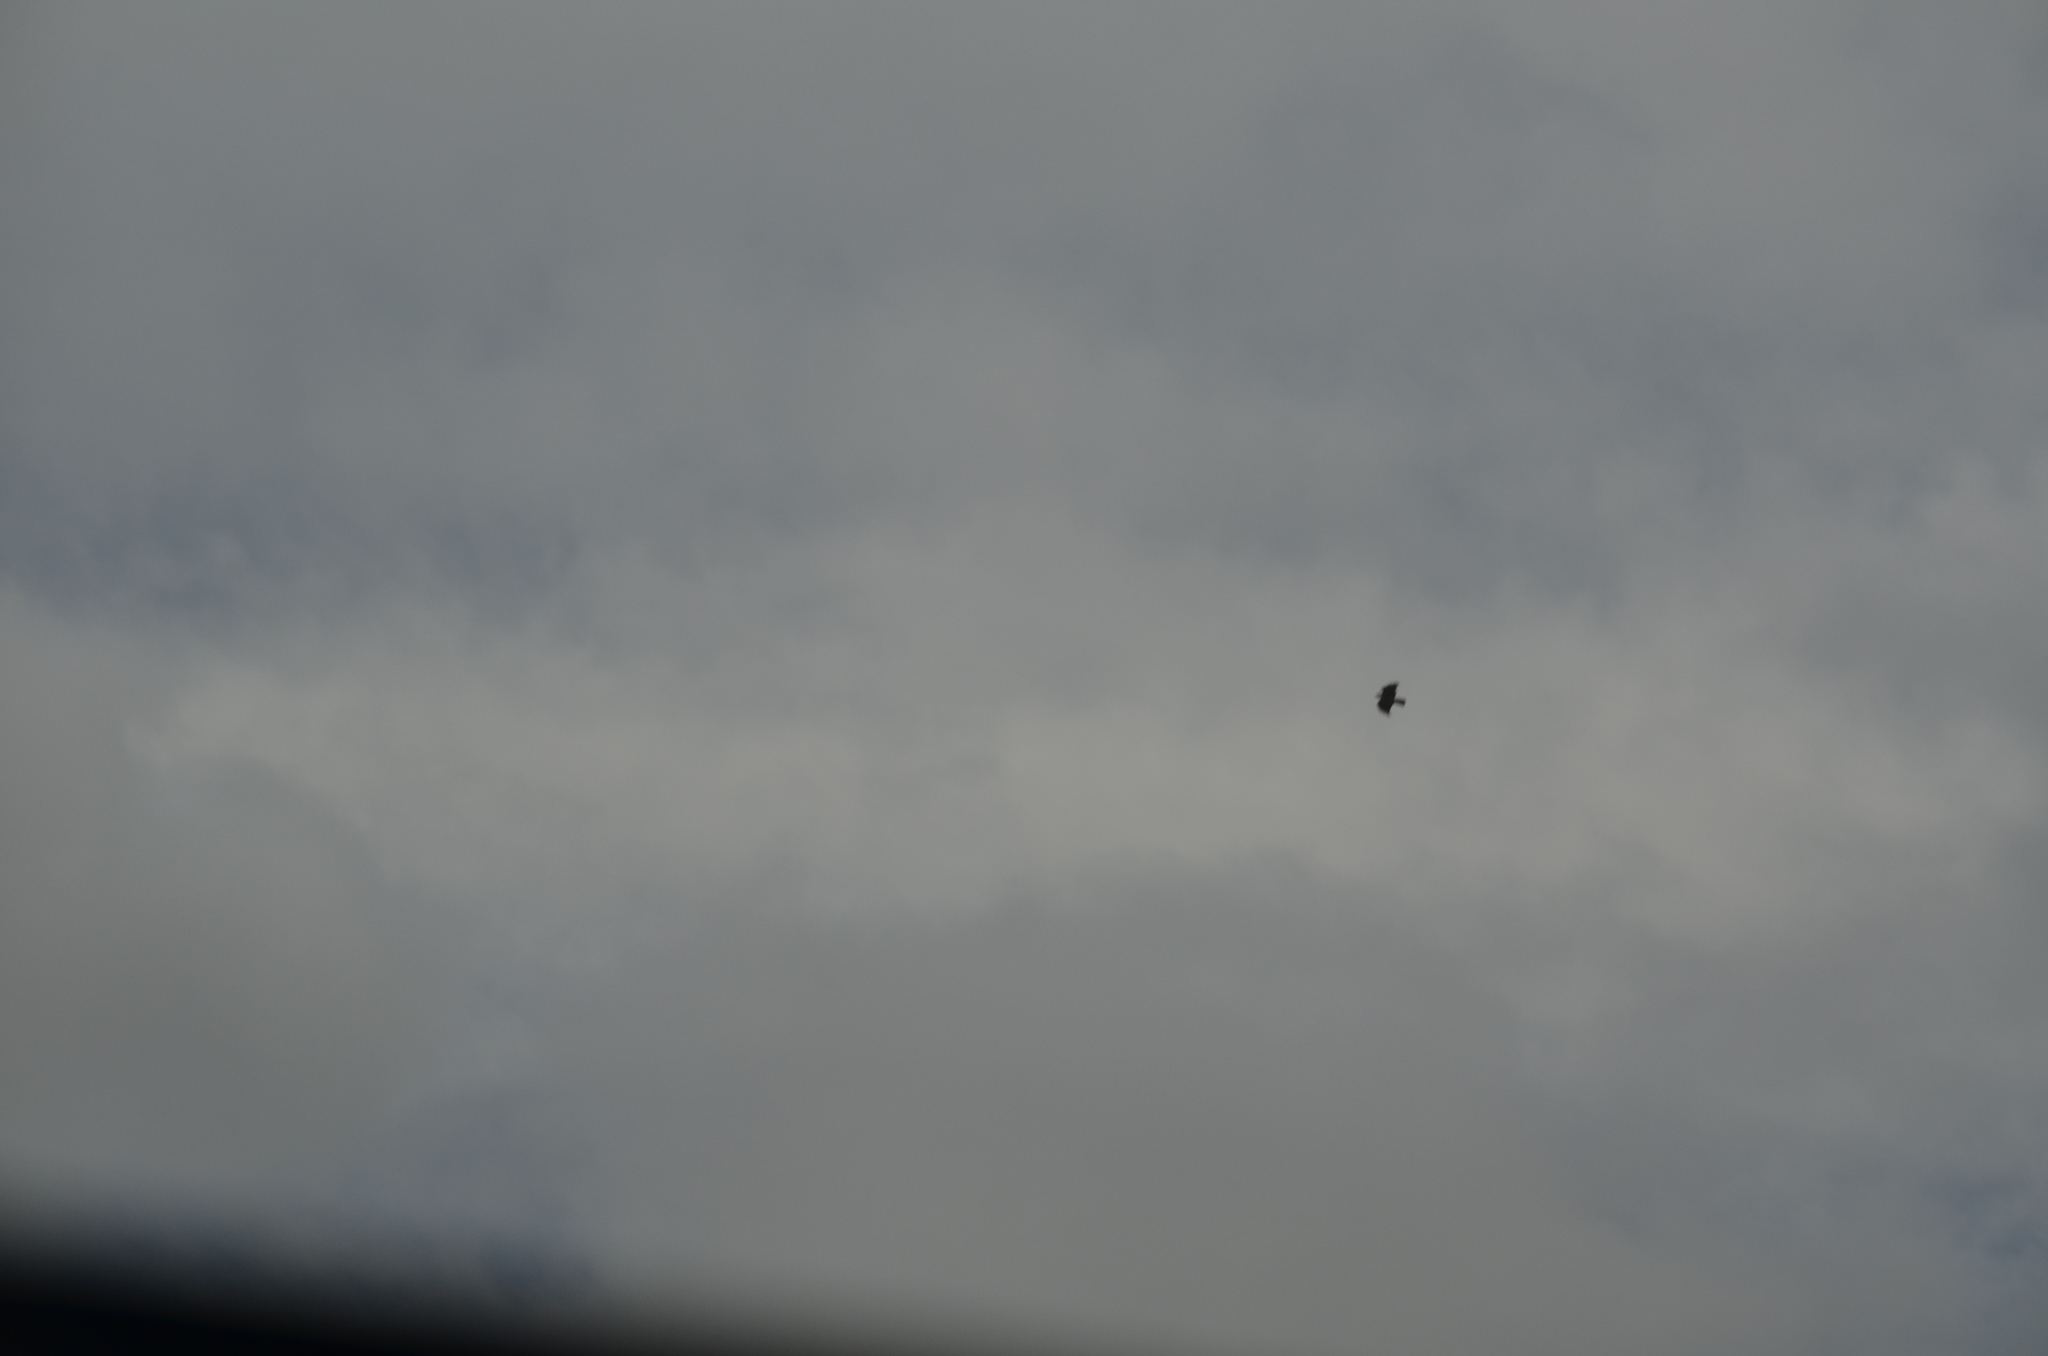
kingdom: Animalia
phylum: Chordata
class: Aves
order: Accipitriformes
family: Accipitridae
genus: Haliaeetus
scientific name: Haliaeetus leucocephalus
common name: Bald eagle
